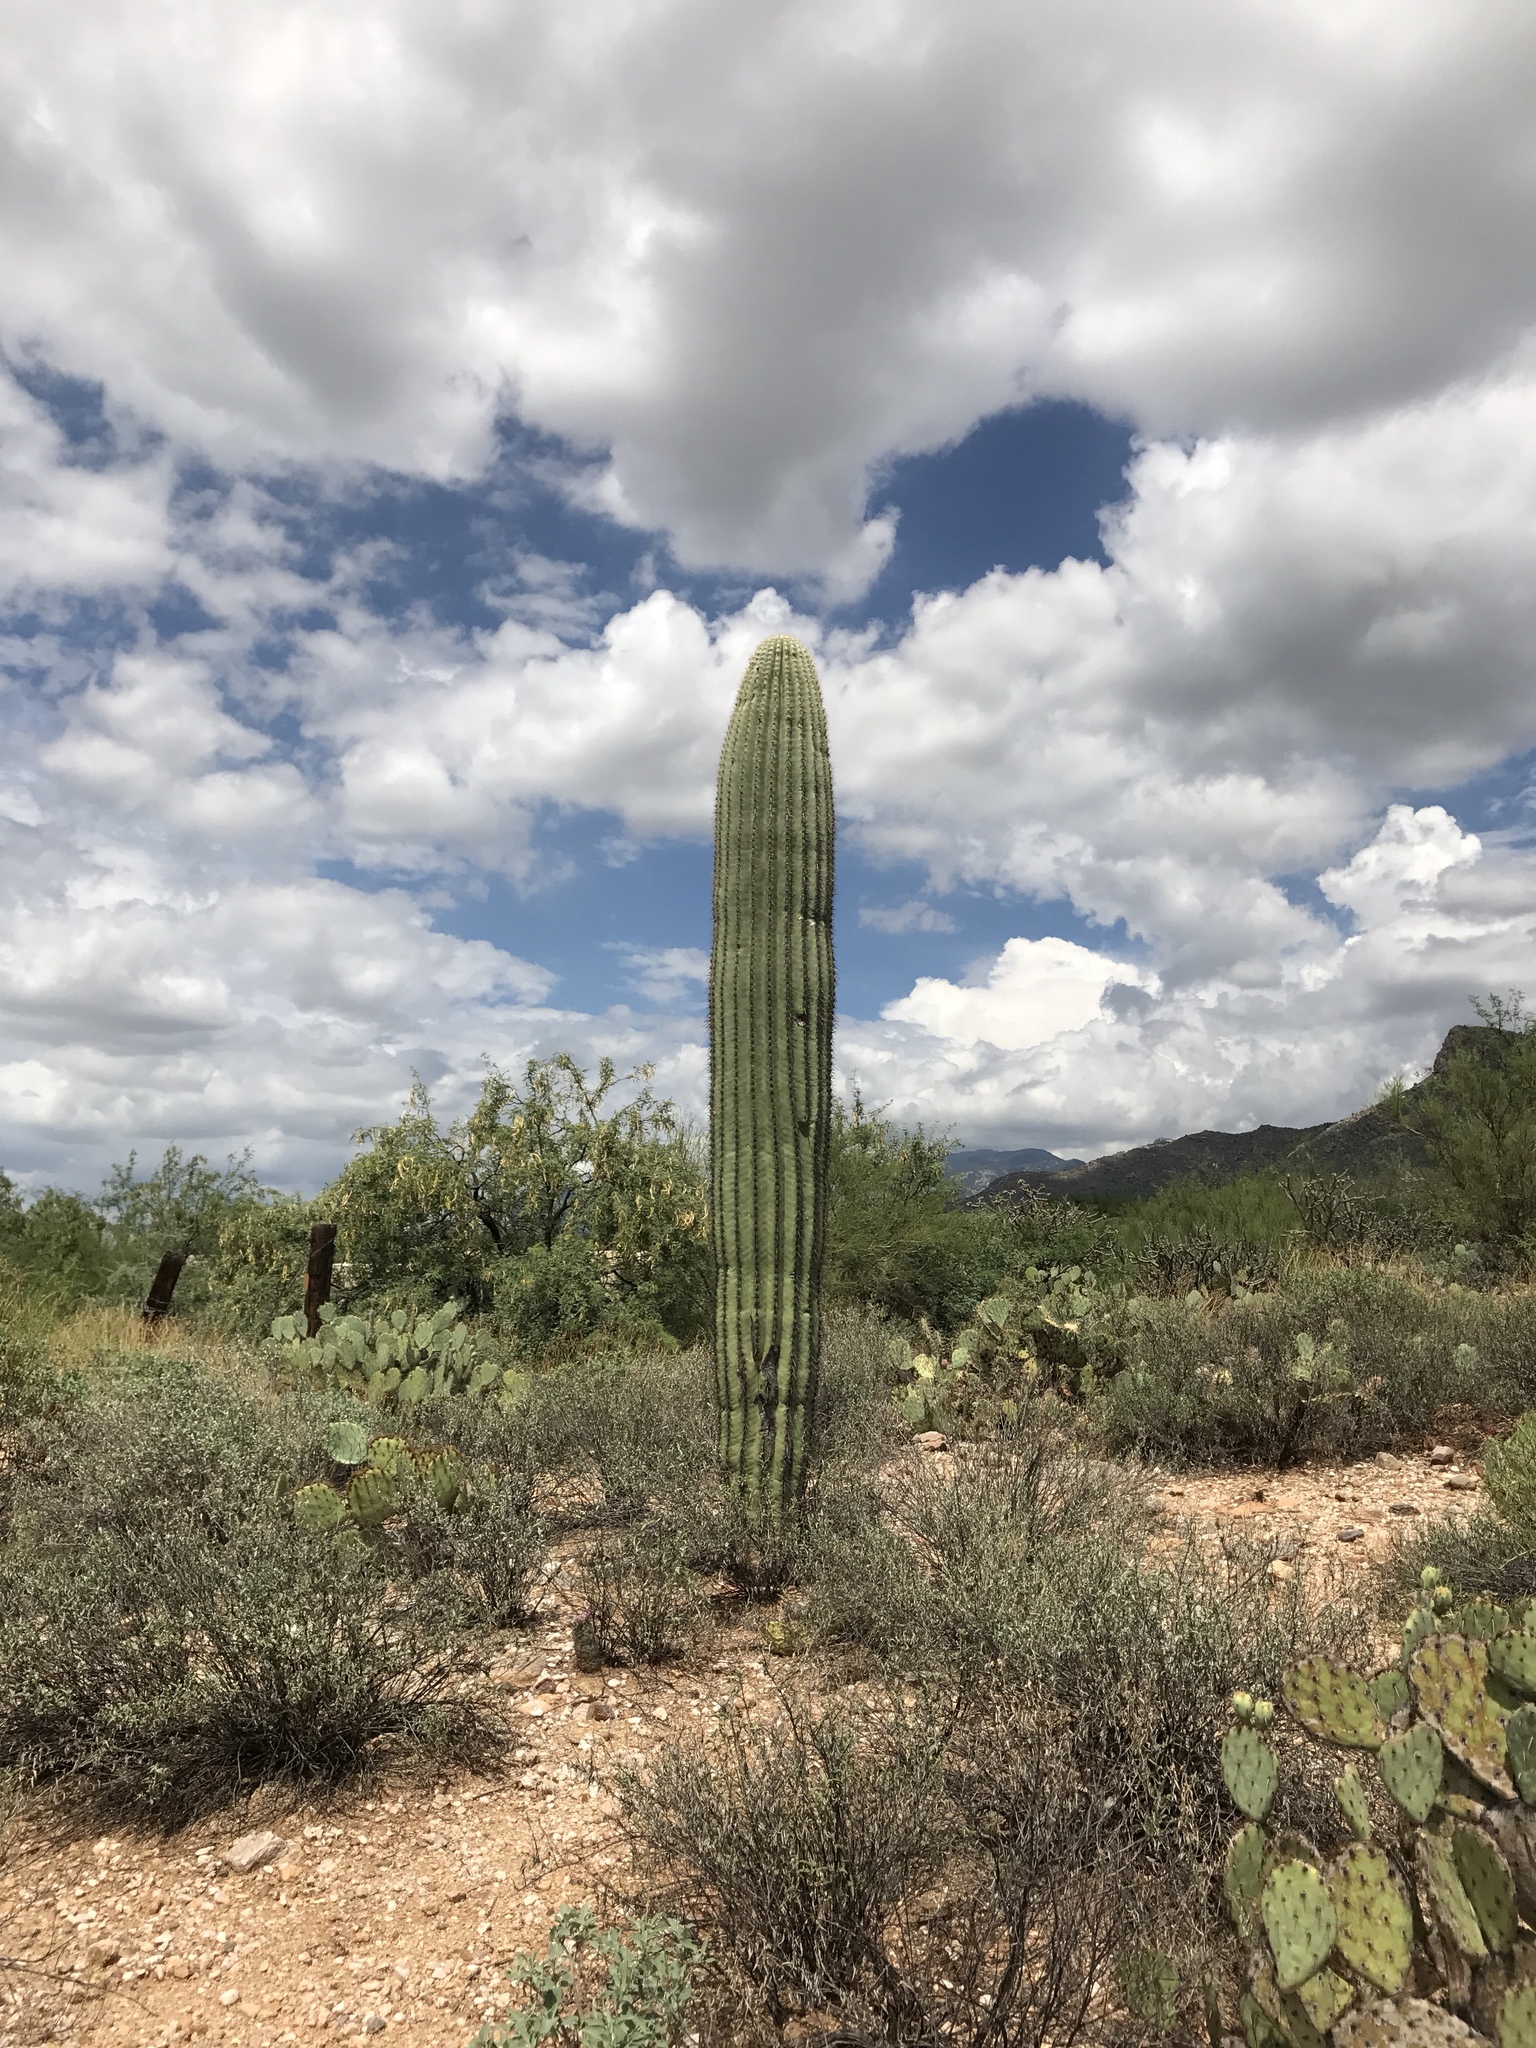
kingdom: Plantae
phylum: Tracheophyta
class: Magnoliopsida
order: Caryophyllales
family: Cactaceae
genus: Carnegiea
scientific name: Carnegiea gigantea
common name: Saguaro
